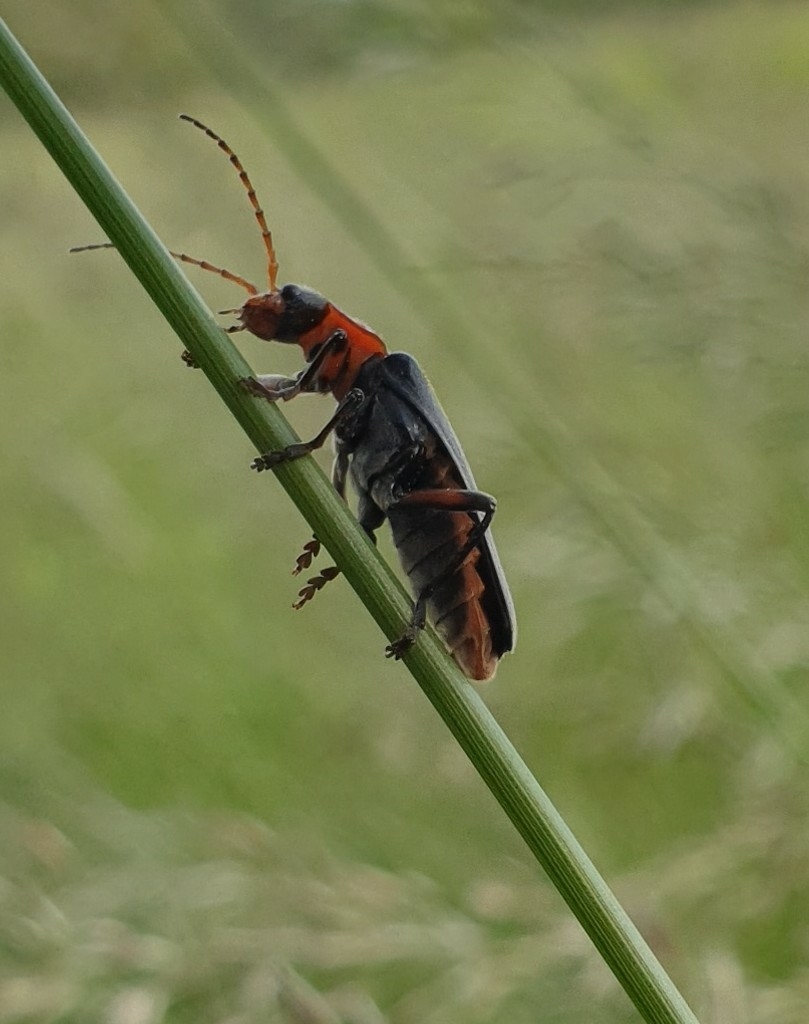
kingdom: Animalia
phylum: Arthropoda
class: Insecta
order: Coleoptera
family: Cantharidae
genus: Cantharis
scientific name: Cantharis rustica
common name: Soldier beetle
